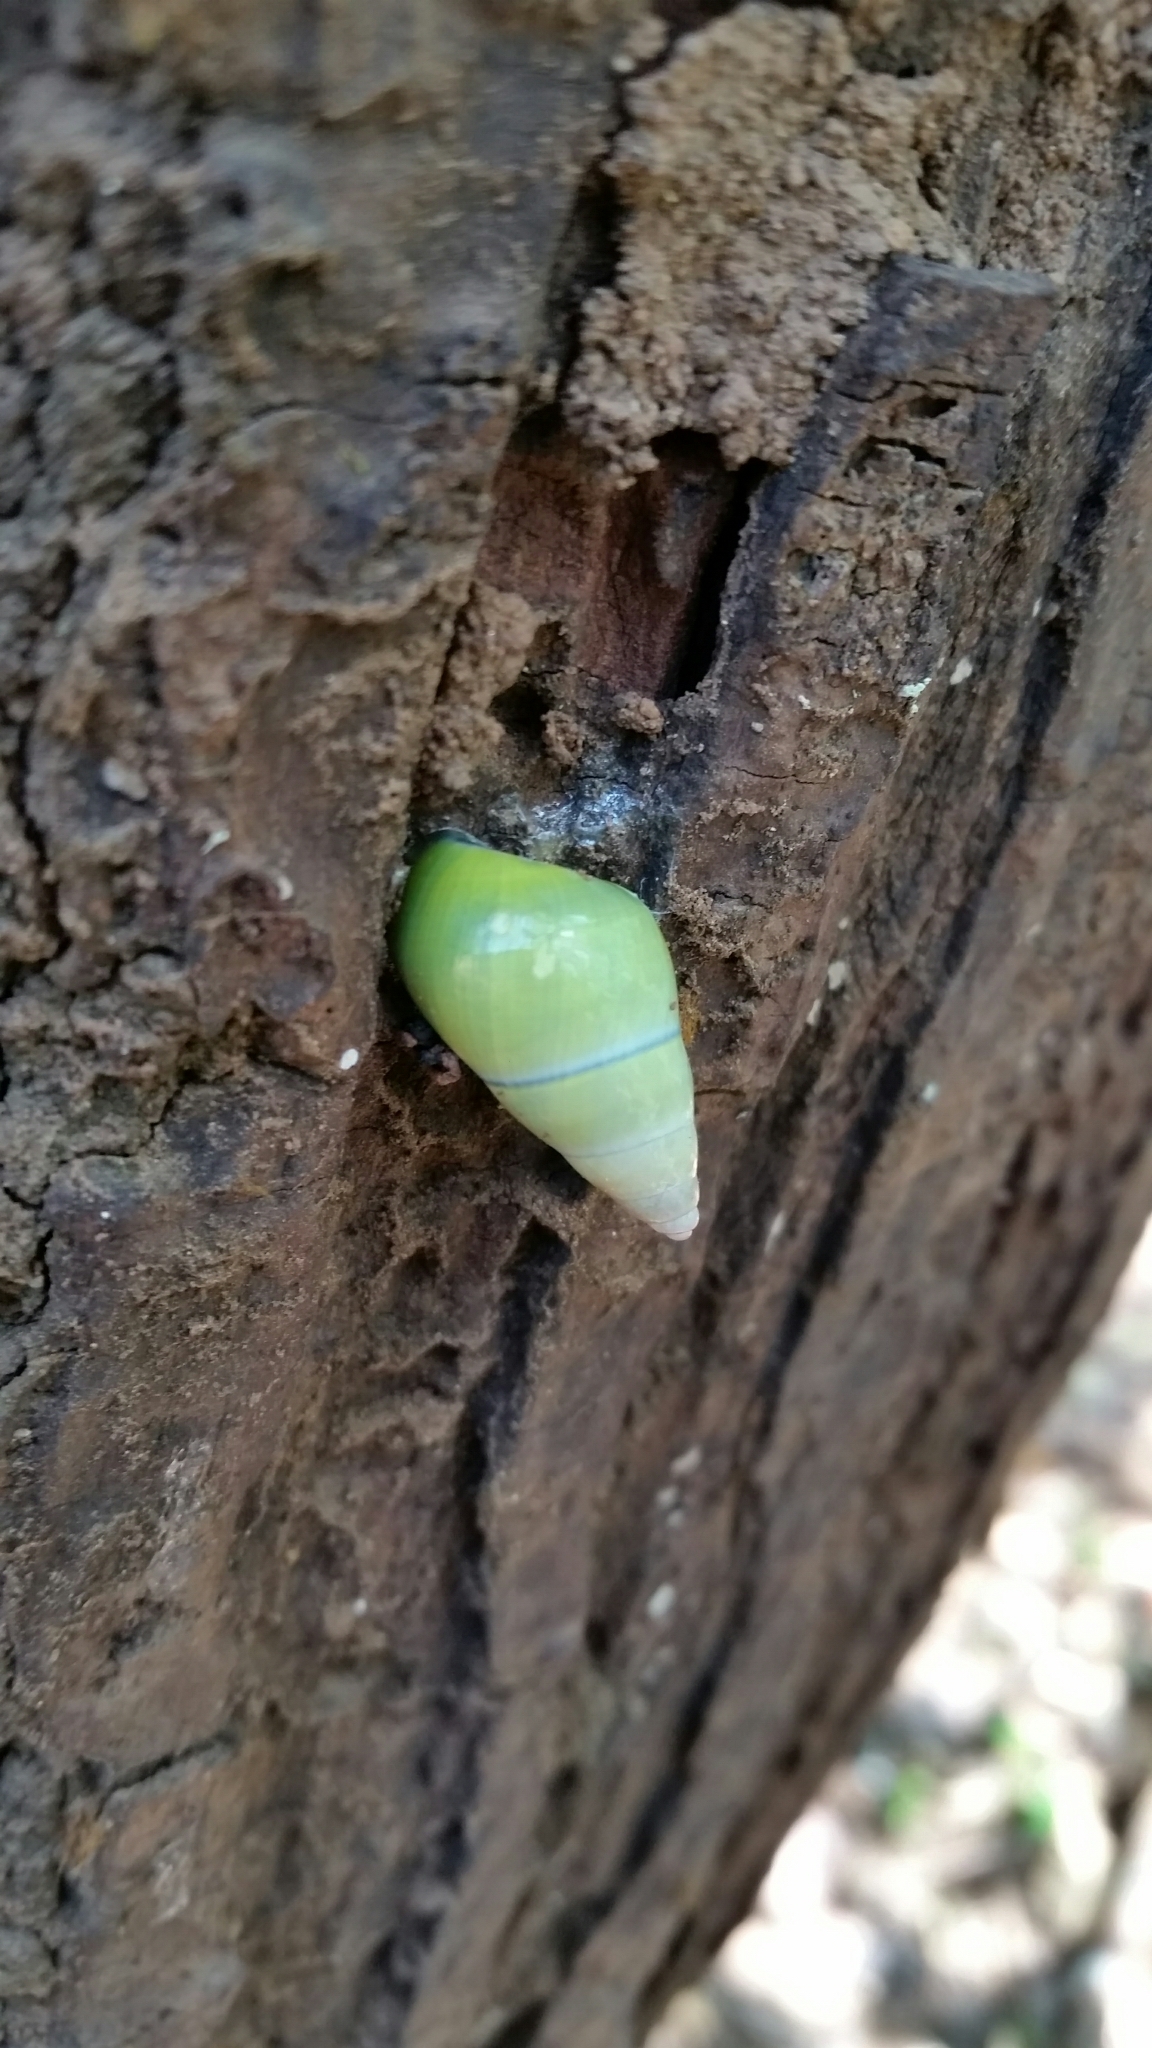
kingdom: Animalia
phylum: Mollusca
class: Gastropoda
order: Stylommatophora
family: Camaenidae
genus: Amphidromus
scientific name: Amphidromus mouhoti
